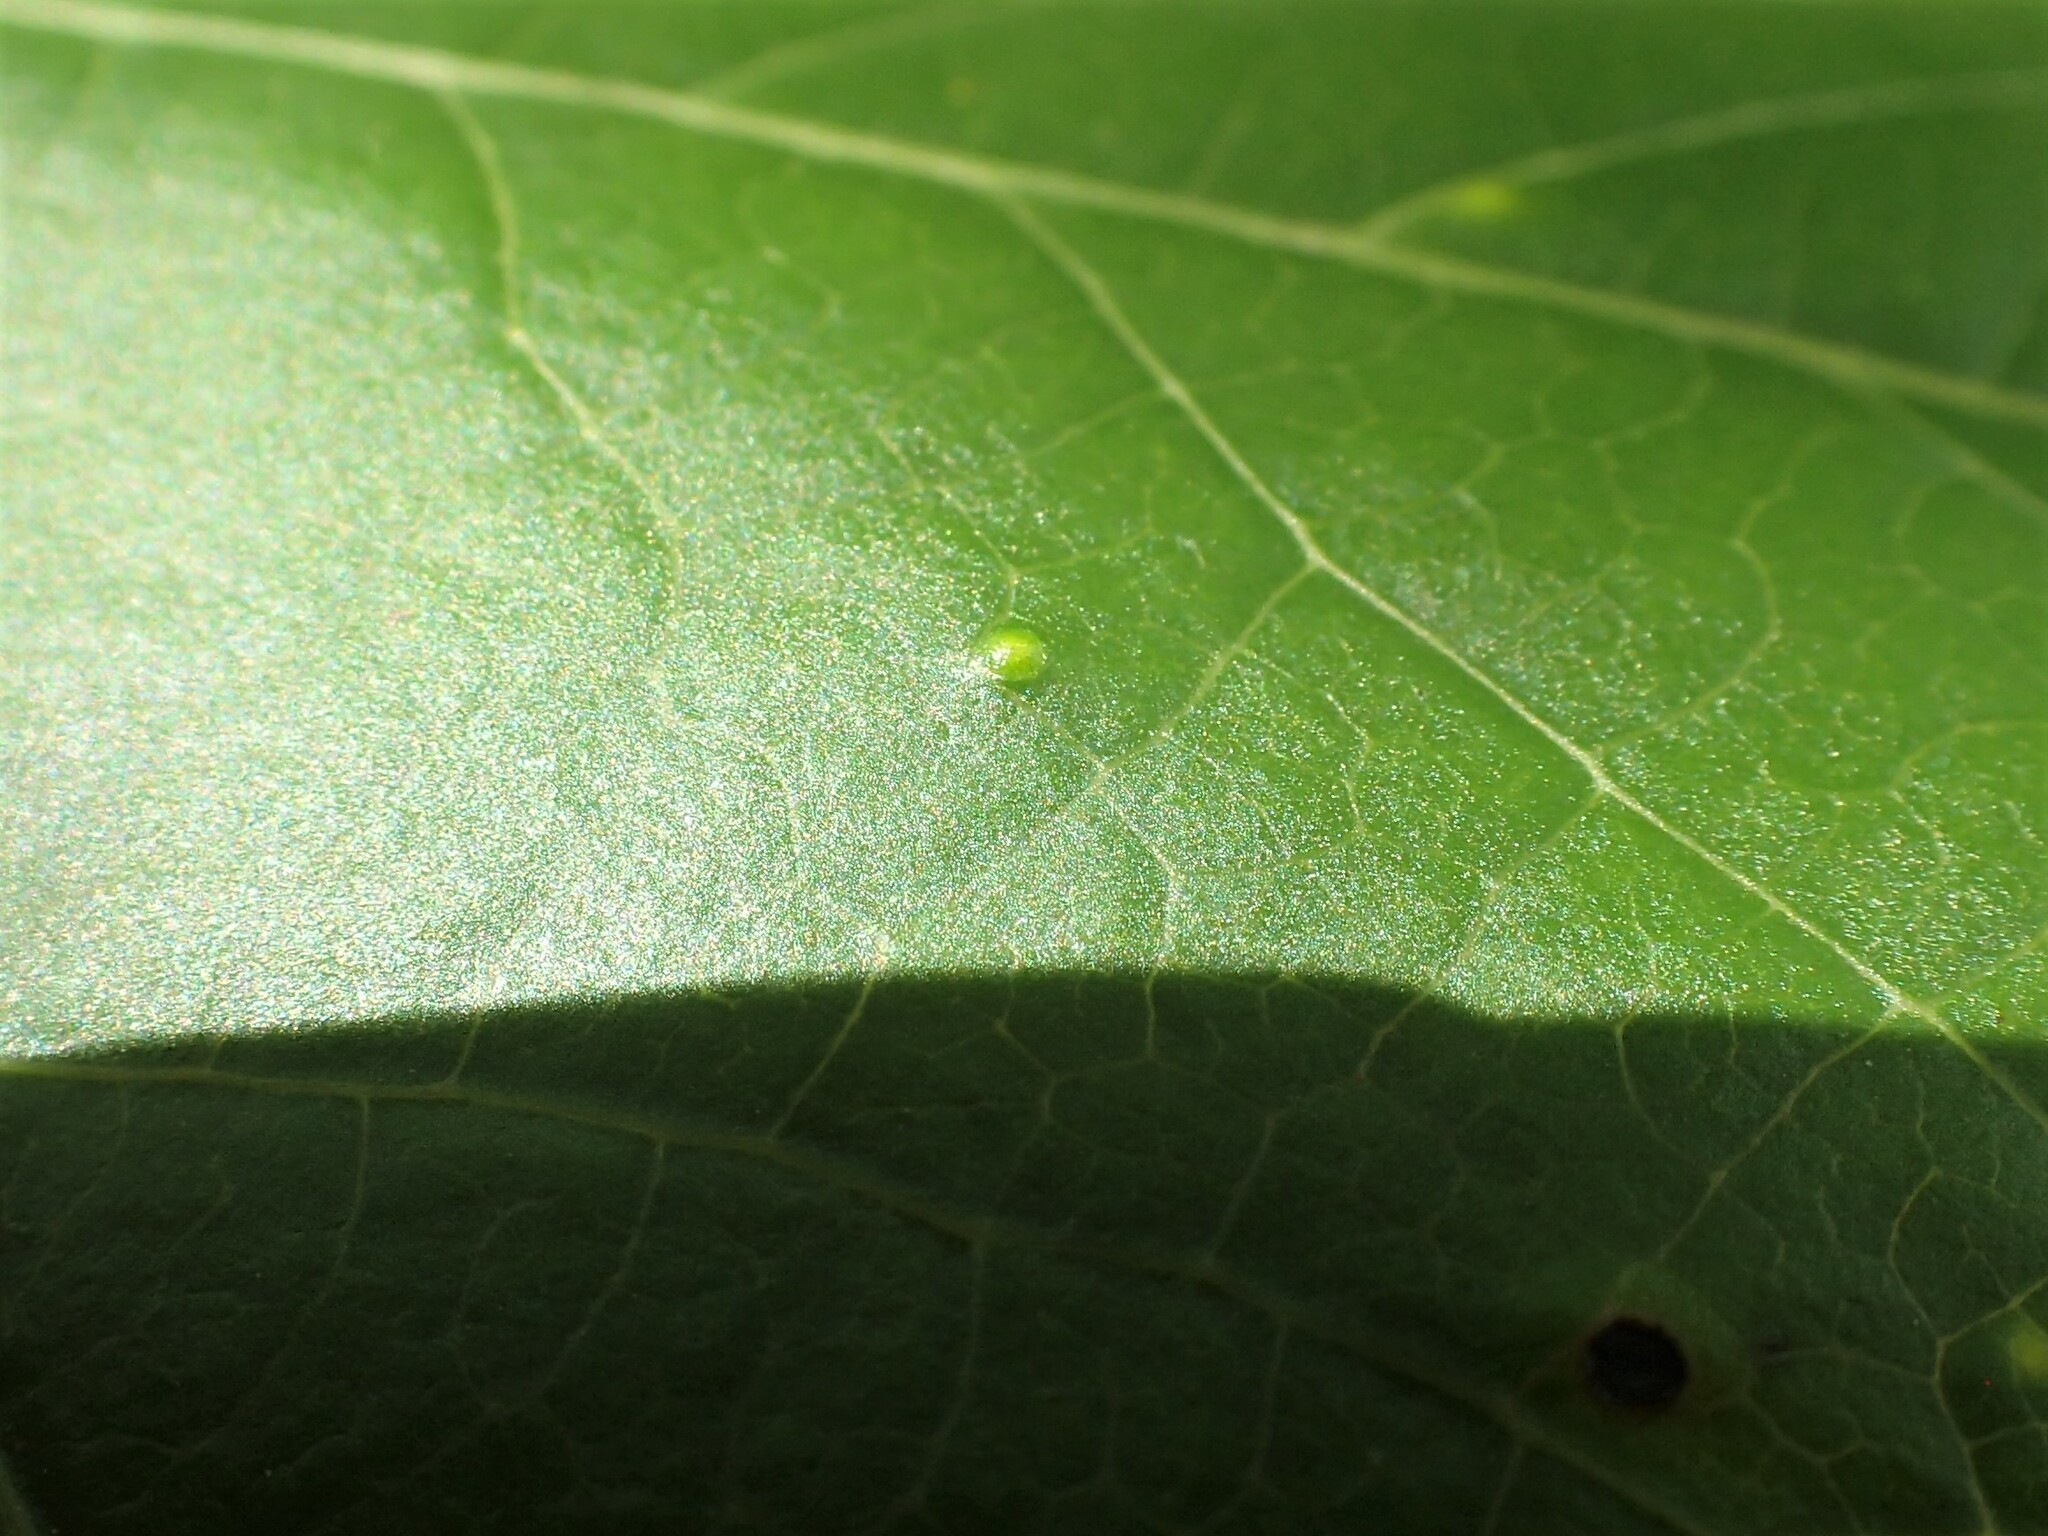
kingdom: Animalia
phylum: Arthropoda
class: Insecta
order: Hemiptera
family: Diaspididae
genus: Diaspidiotus
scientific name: Diaspidiotus liquidambaris
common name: Sweet gum scale
